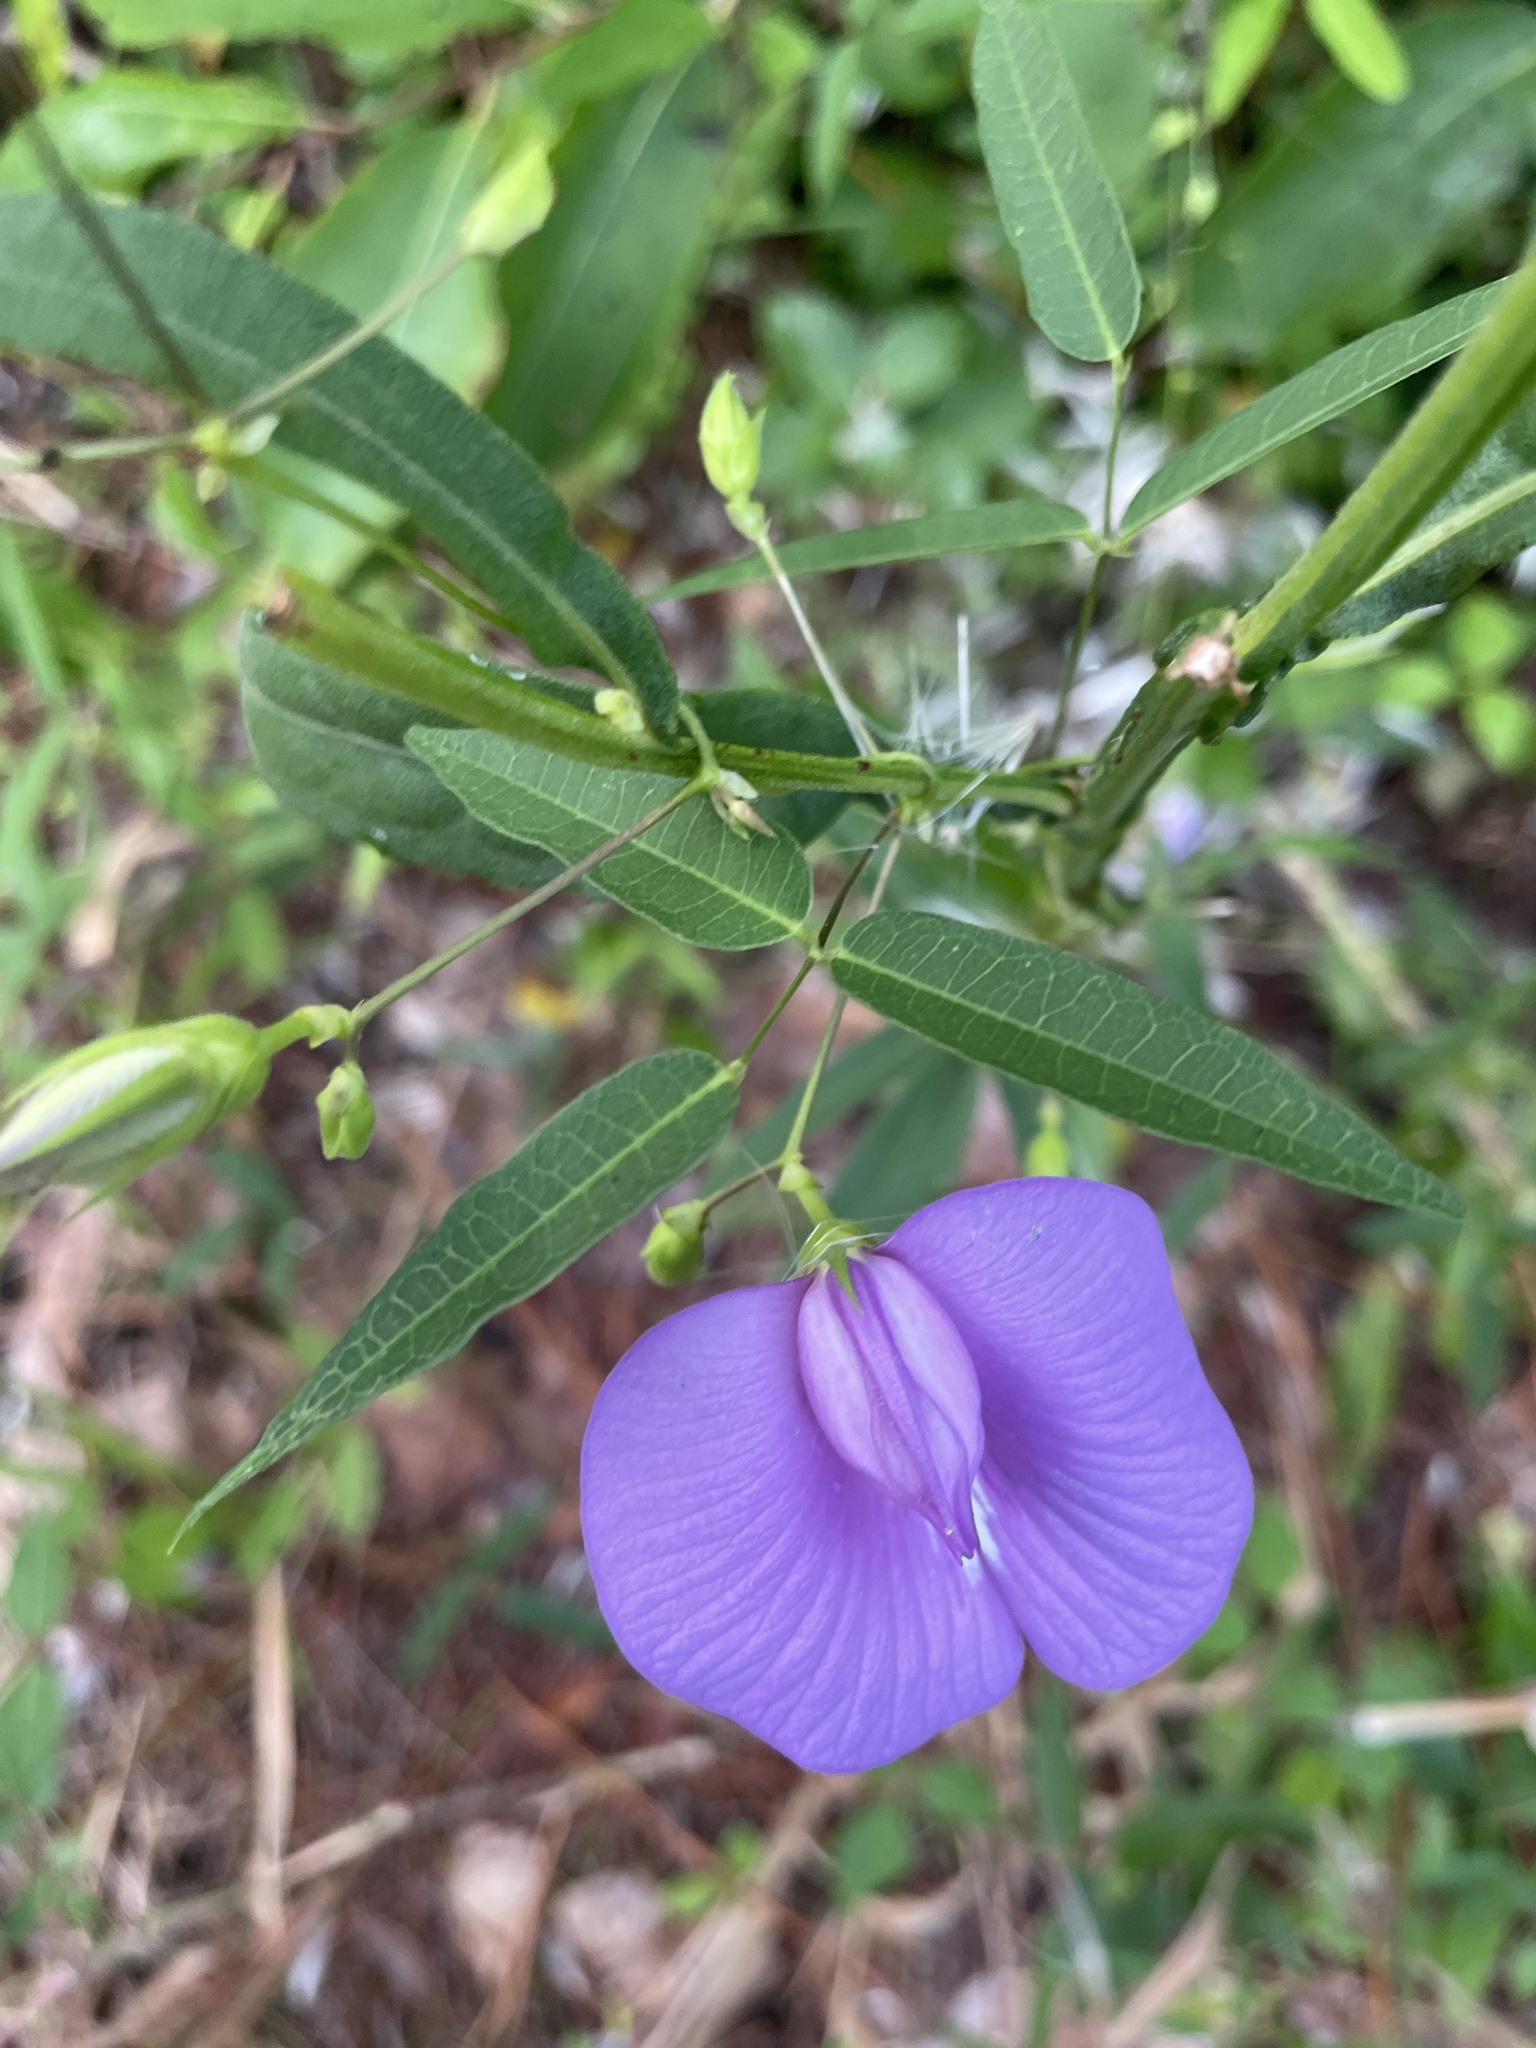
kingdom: Plantae
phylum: Tracheophyta
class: Magnoliopsida
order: Fabales
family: Fabaceae
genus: Centrosema
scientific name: Centrosema virginianum
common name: Butterfly-pea
